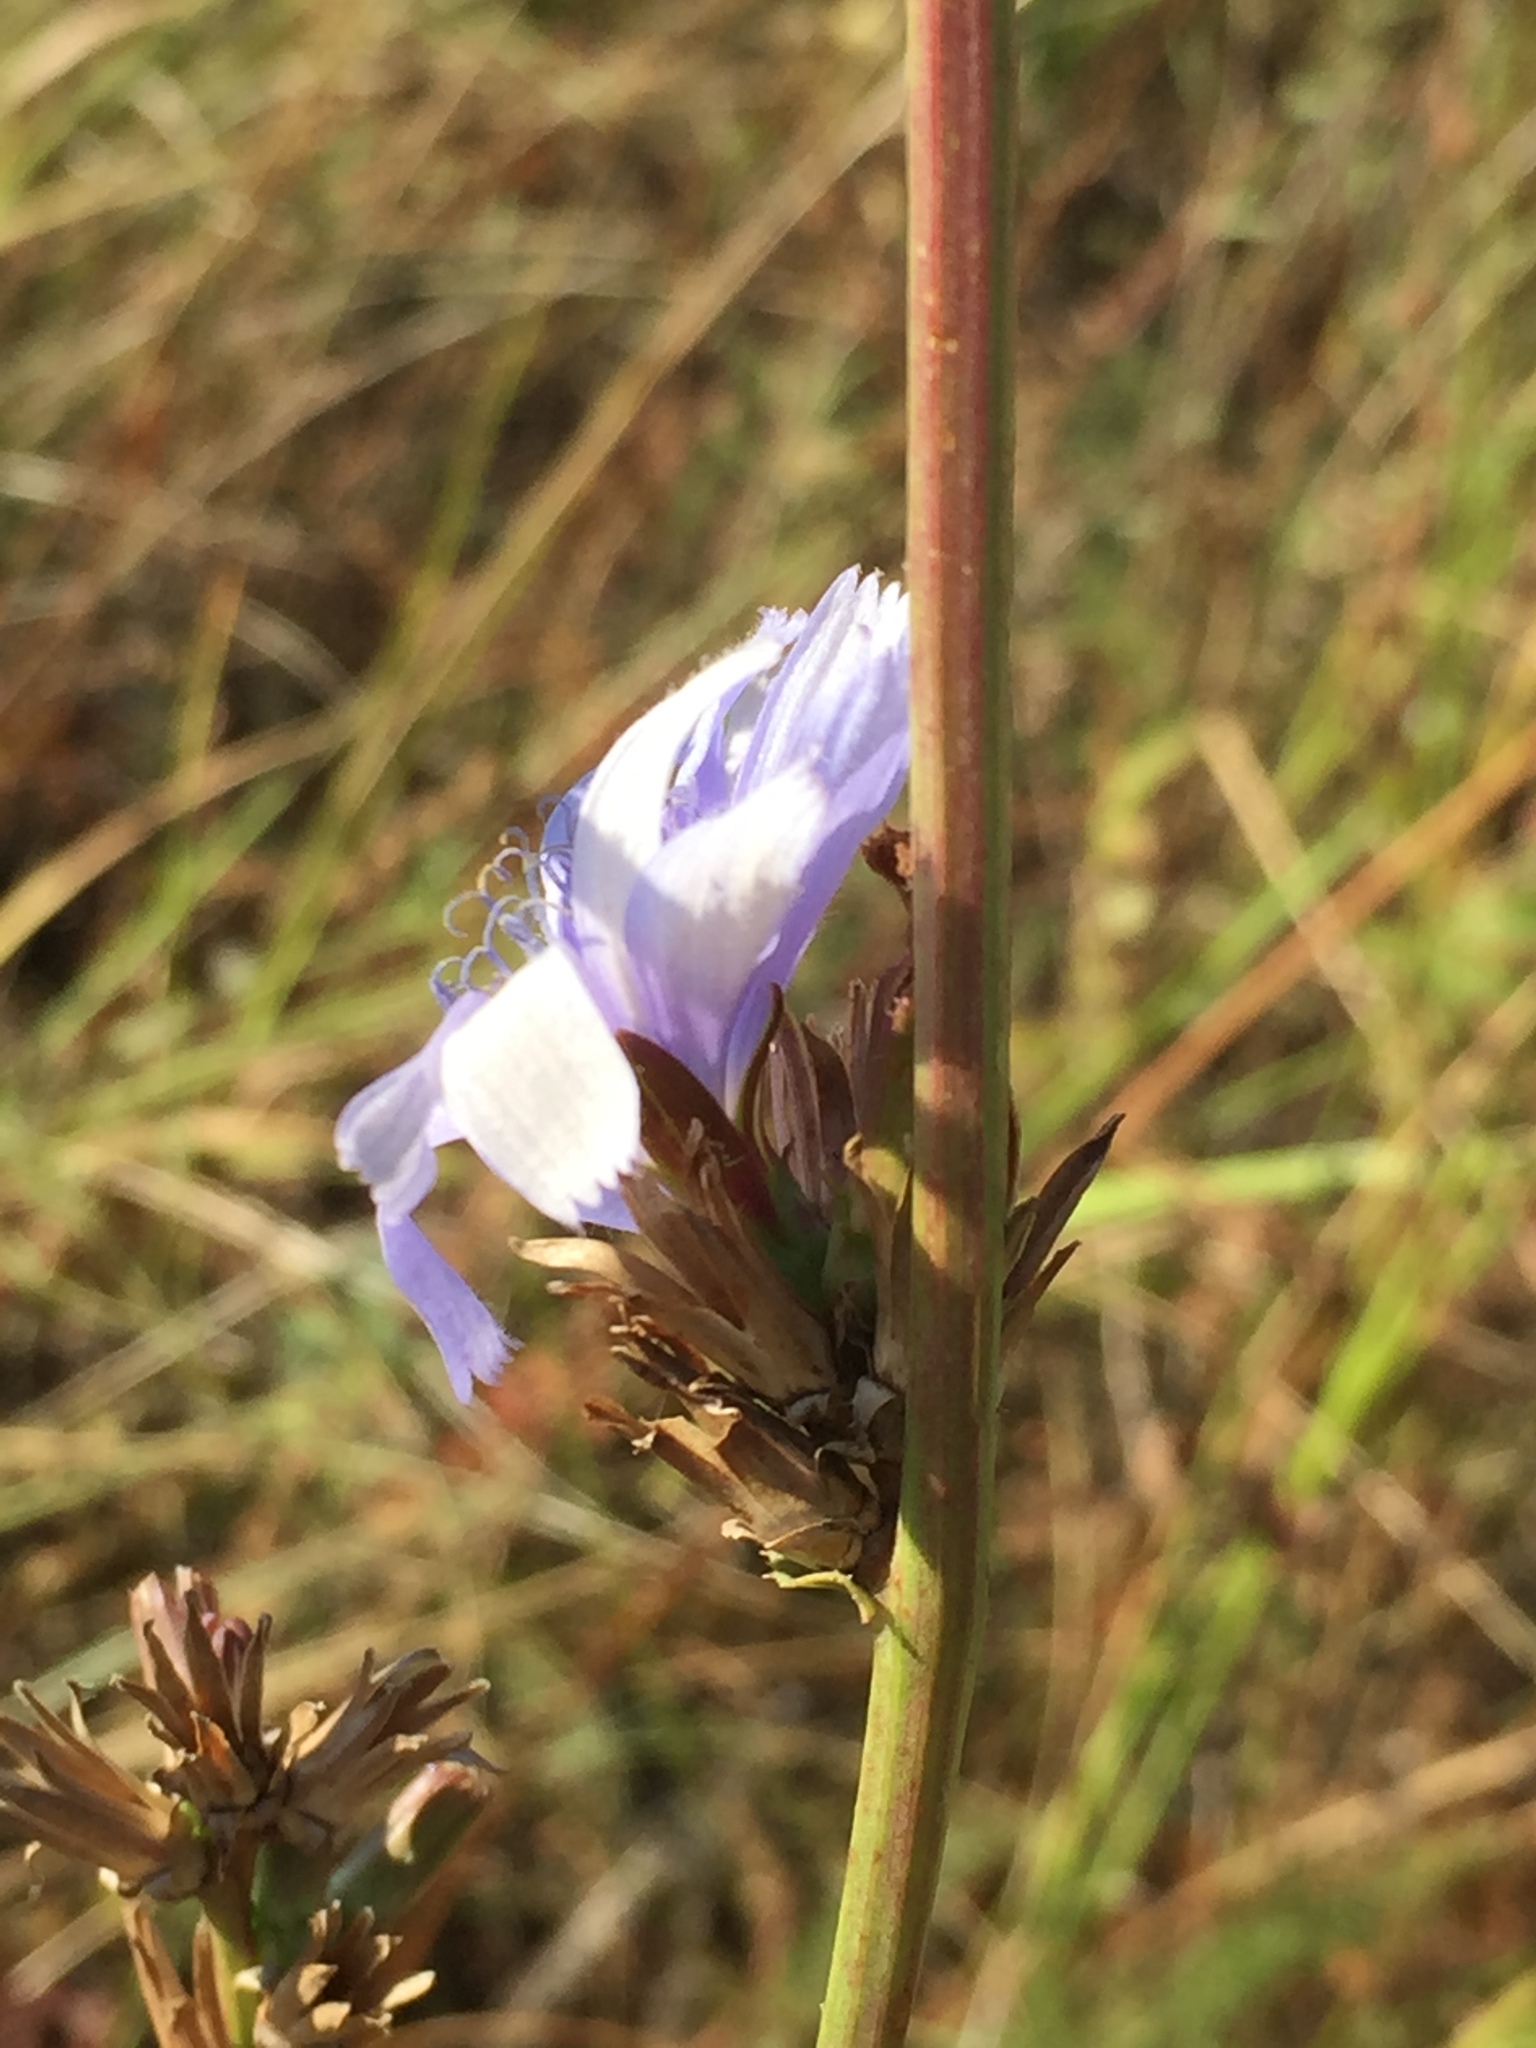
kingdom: Plantae
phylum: Tracheophyta
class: Magnoliopsida
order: Asterales
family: Asteraceae
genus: Cichorium
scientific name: Cichorium intybus
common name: Chicory
